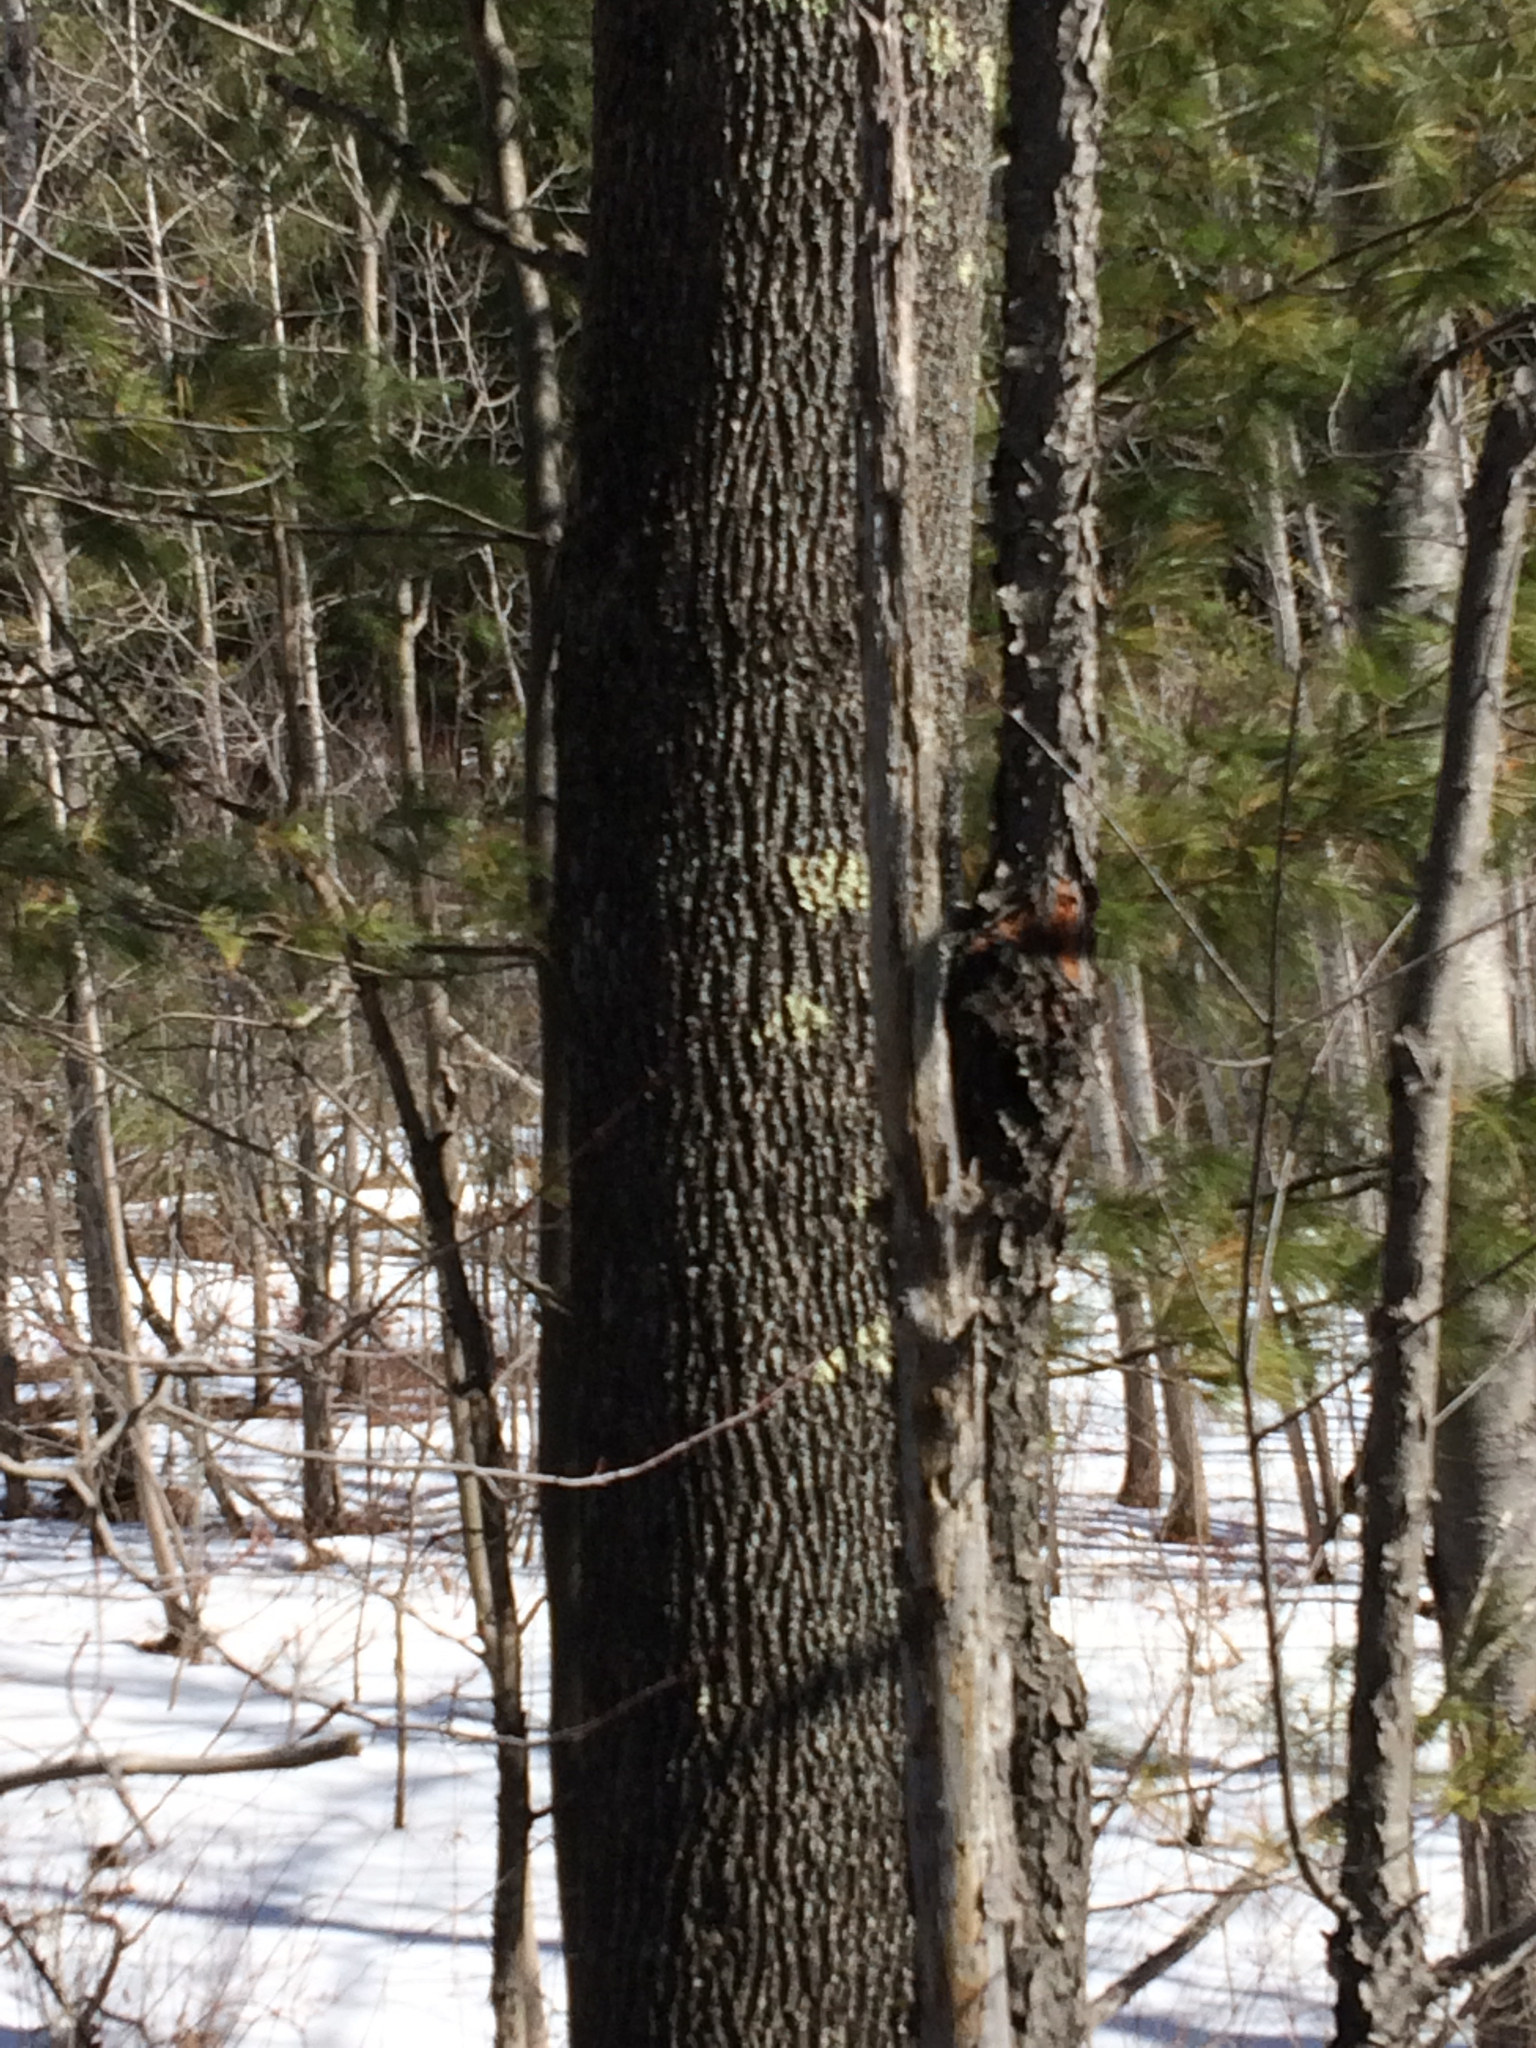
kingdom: Plantae
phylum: Tracheophyta
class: Magnoliopsida
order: Lamiales
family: Oleaceae
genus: Fraxinus
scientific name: Fraxinus americana
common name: White ash
